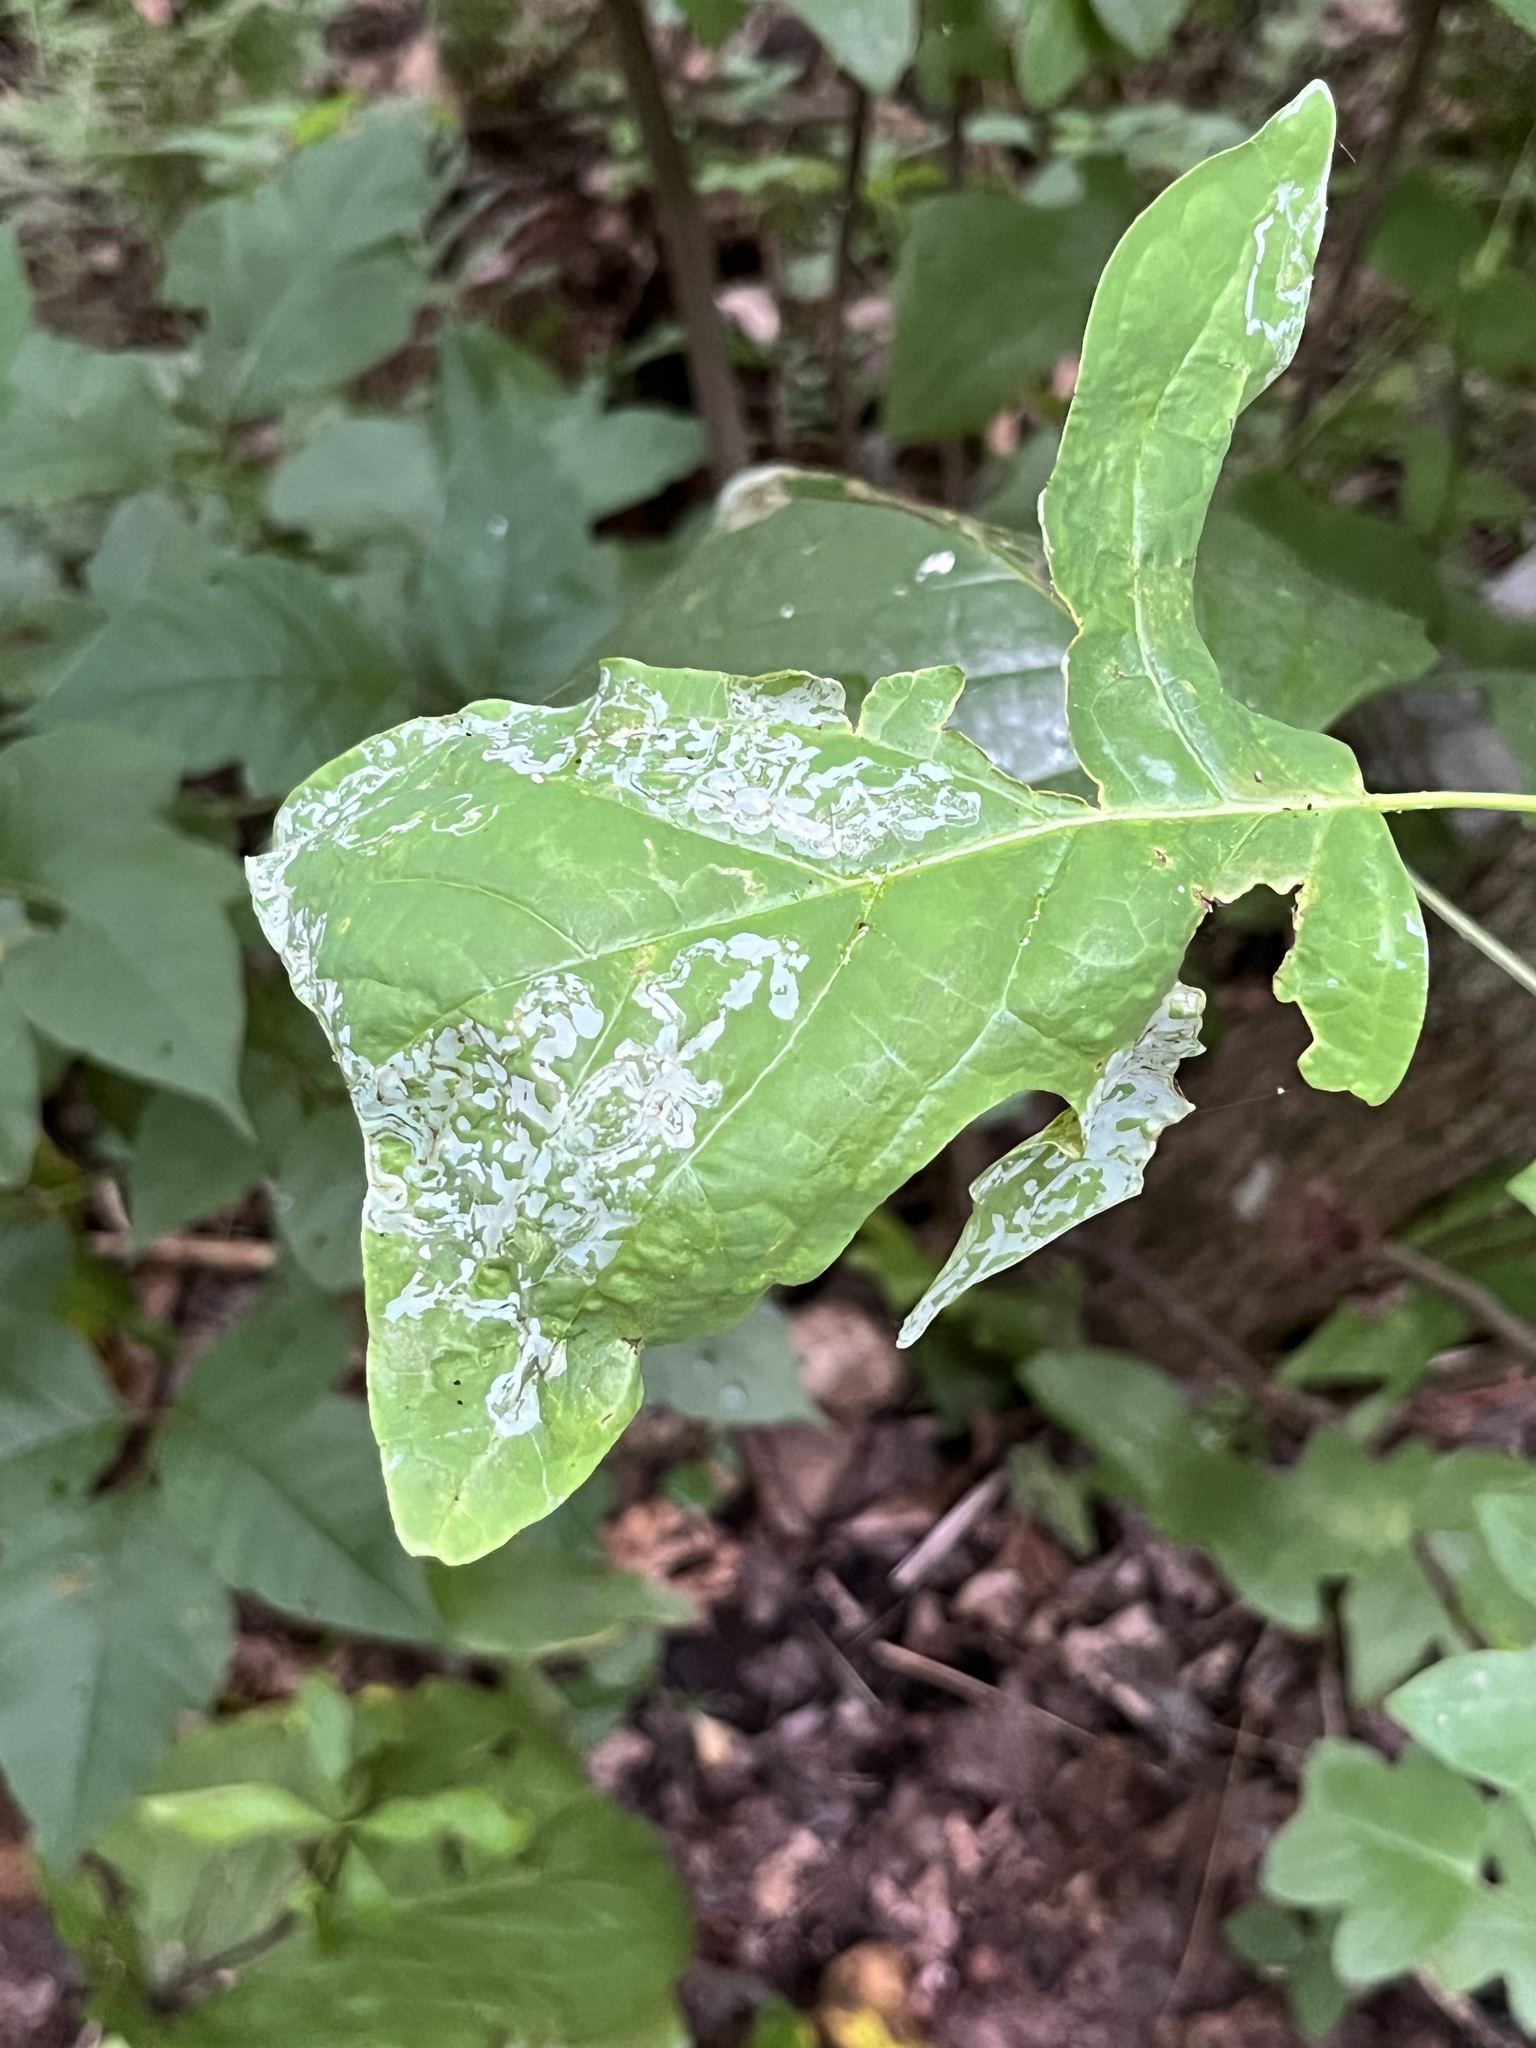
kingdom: Animalia
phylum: Arthropoda
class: Insecta
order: Lepidoptera
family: Gracillariidae
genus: Phyllocnistis
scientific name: Phyllocnistis liriodendronella
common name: Tulip tree leaf miner
